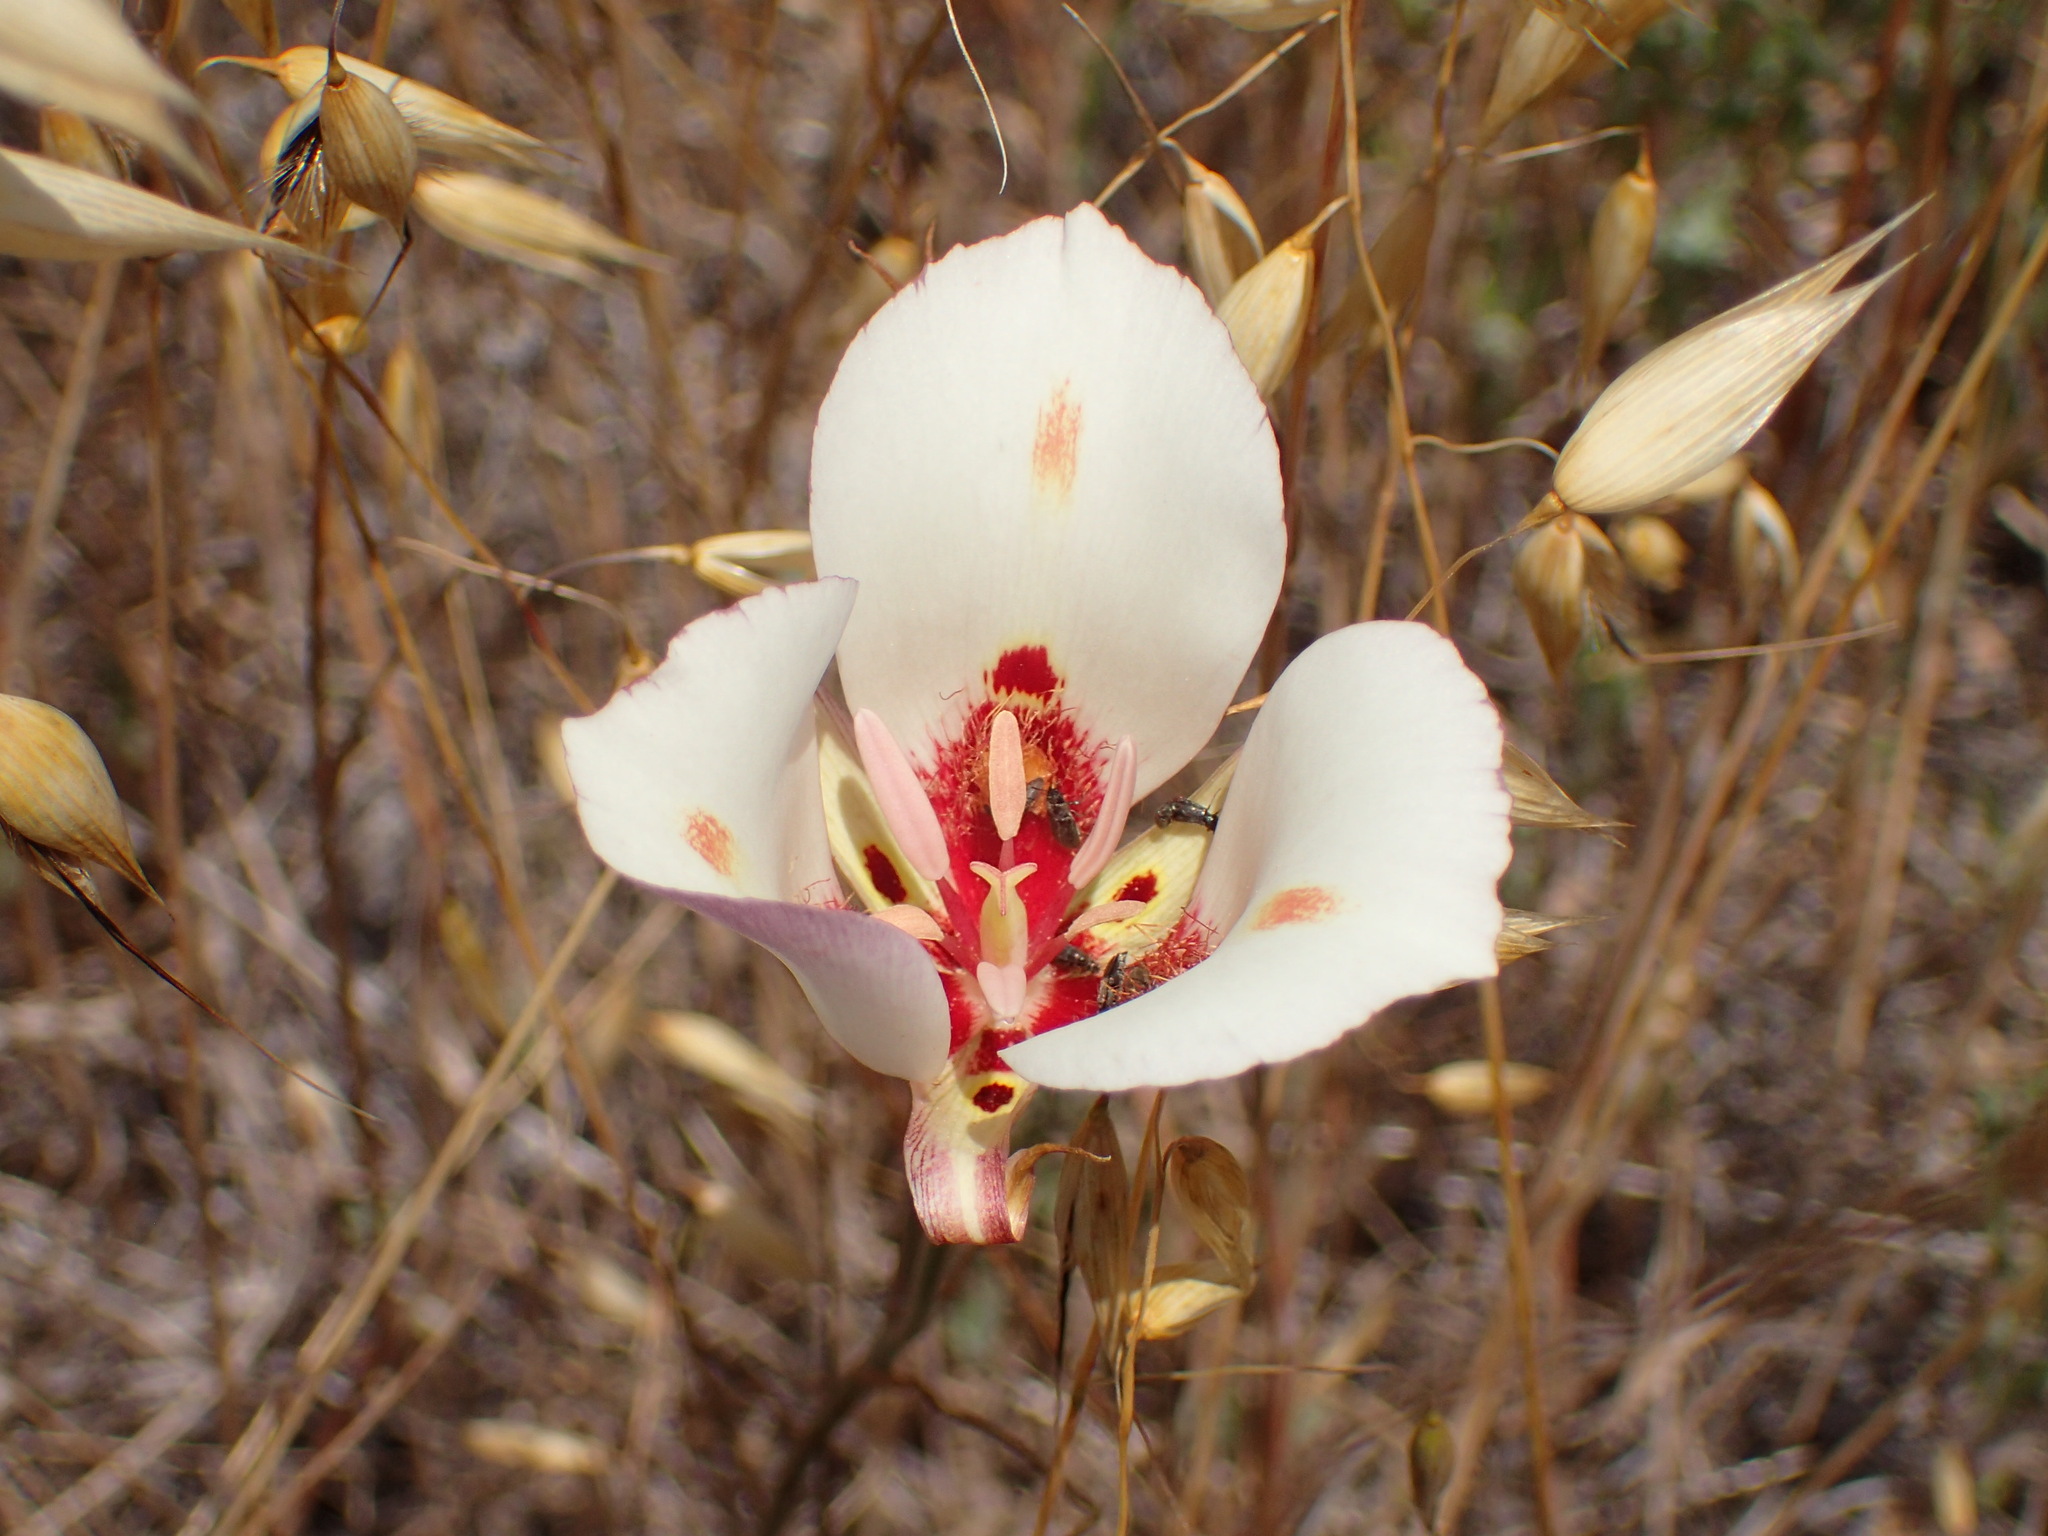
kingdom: Plantae
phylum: Tracheophyta
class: Liliopsida
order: Liliales
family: Liliaceae
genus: Calochortus
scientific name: Calochortus venustus
